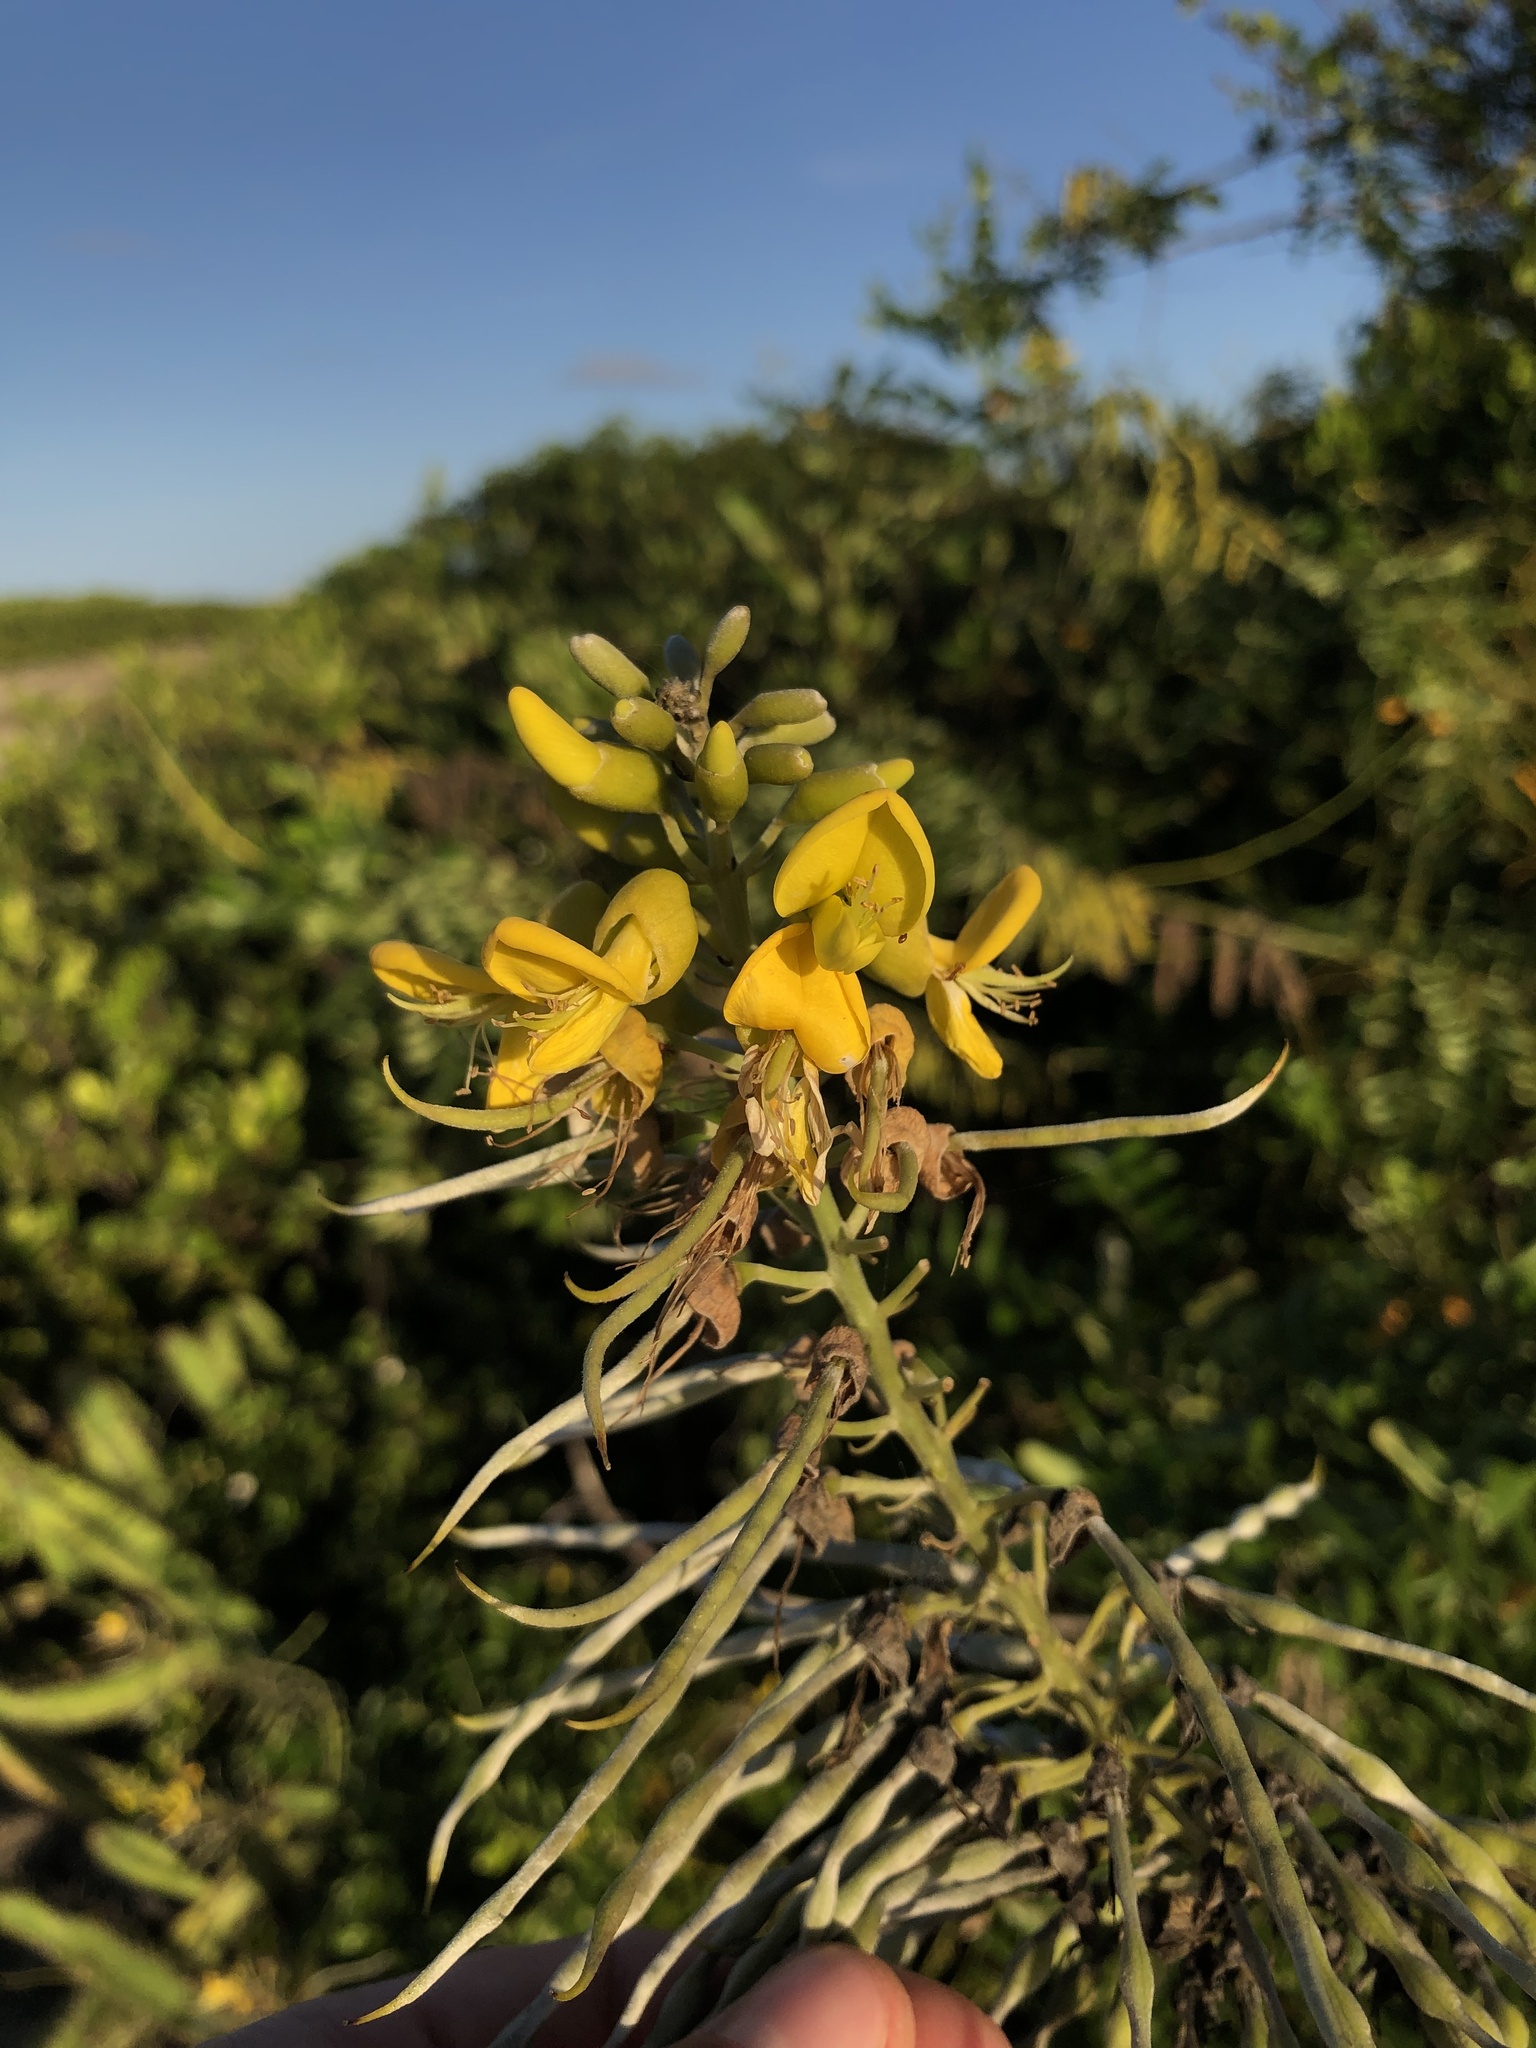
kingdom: Plantae
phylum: Tracheophyta
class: Magnoliopsida
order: Fabales
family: Fabaceae
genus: Sophora
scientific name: Sophora tomentosa
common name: Yellow necklacepod
